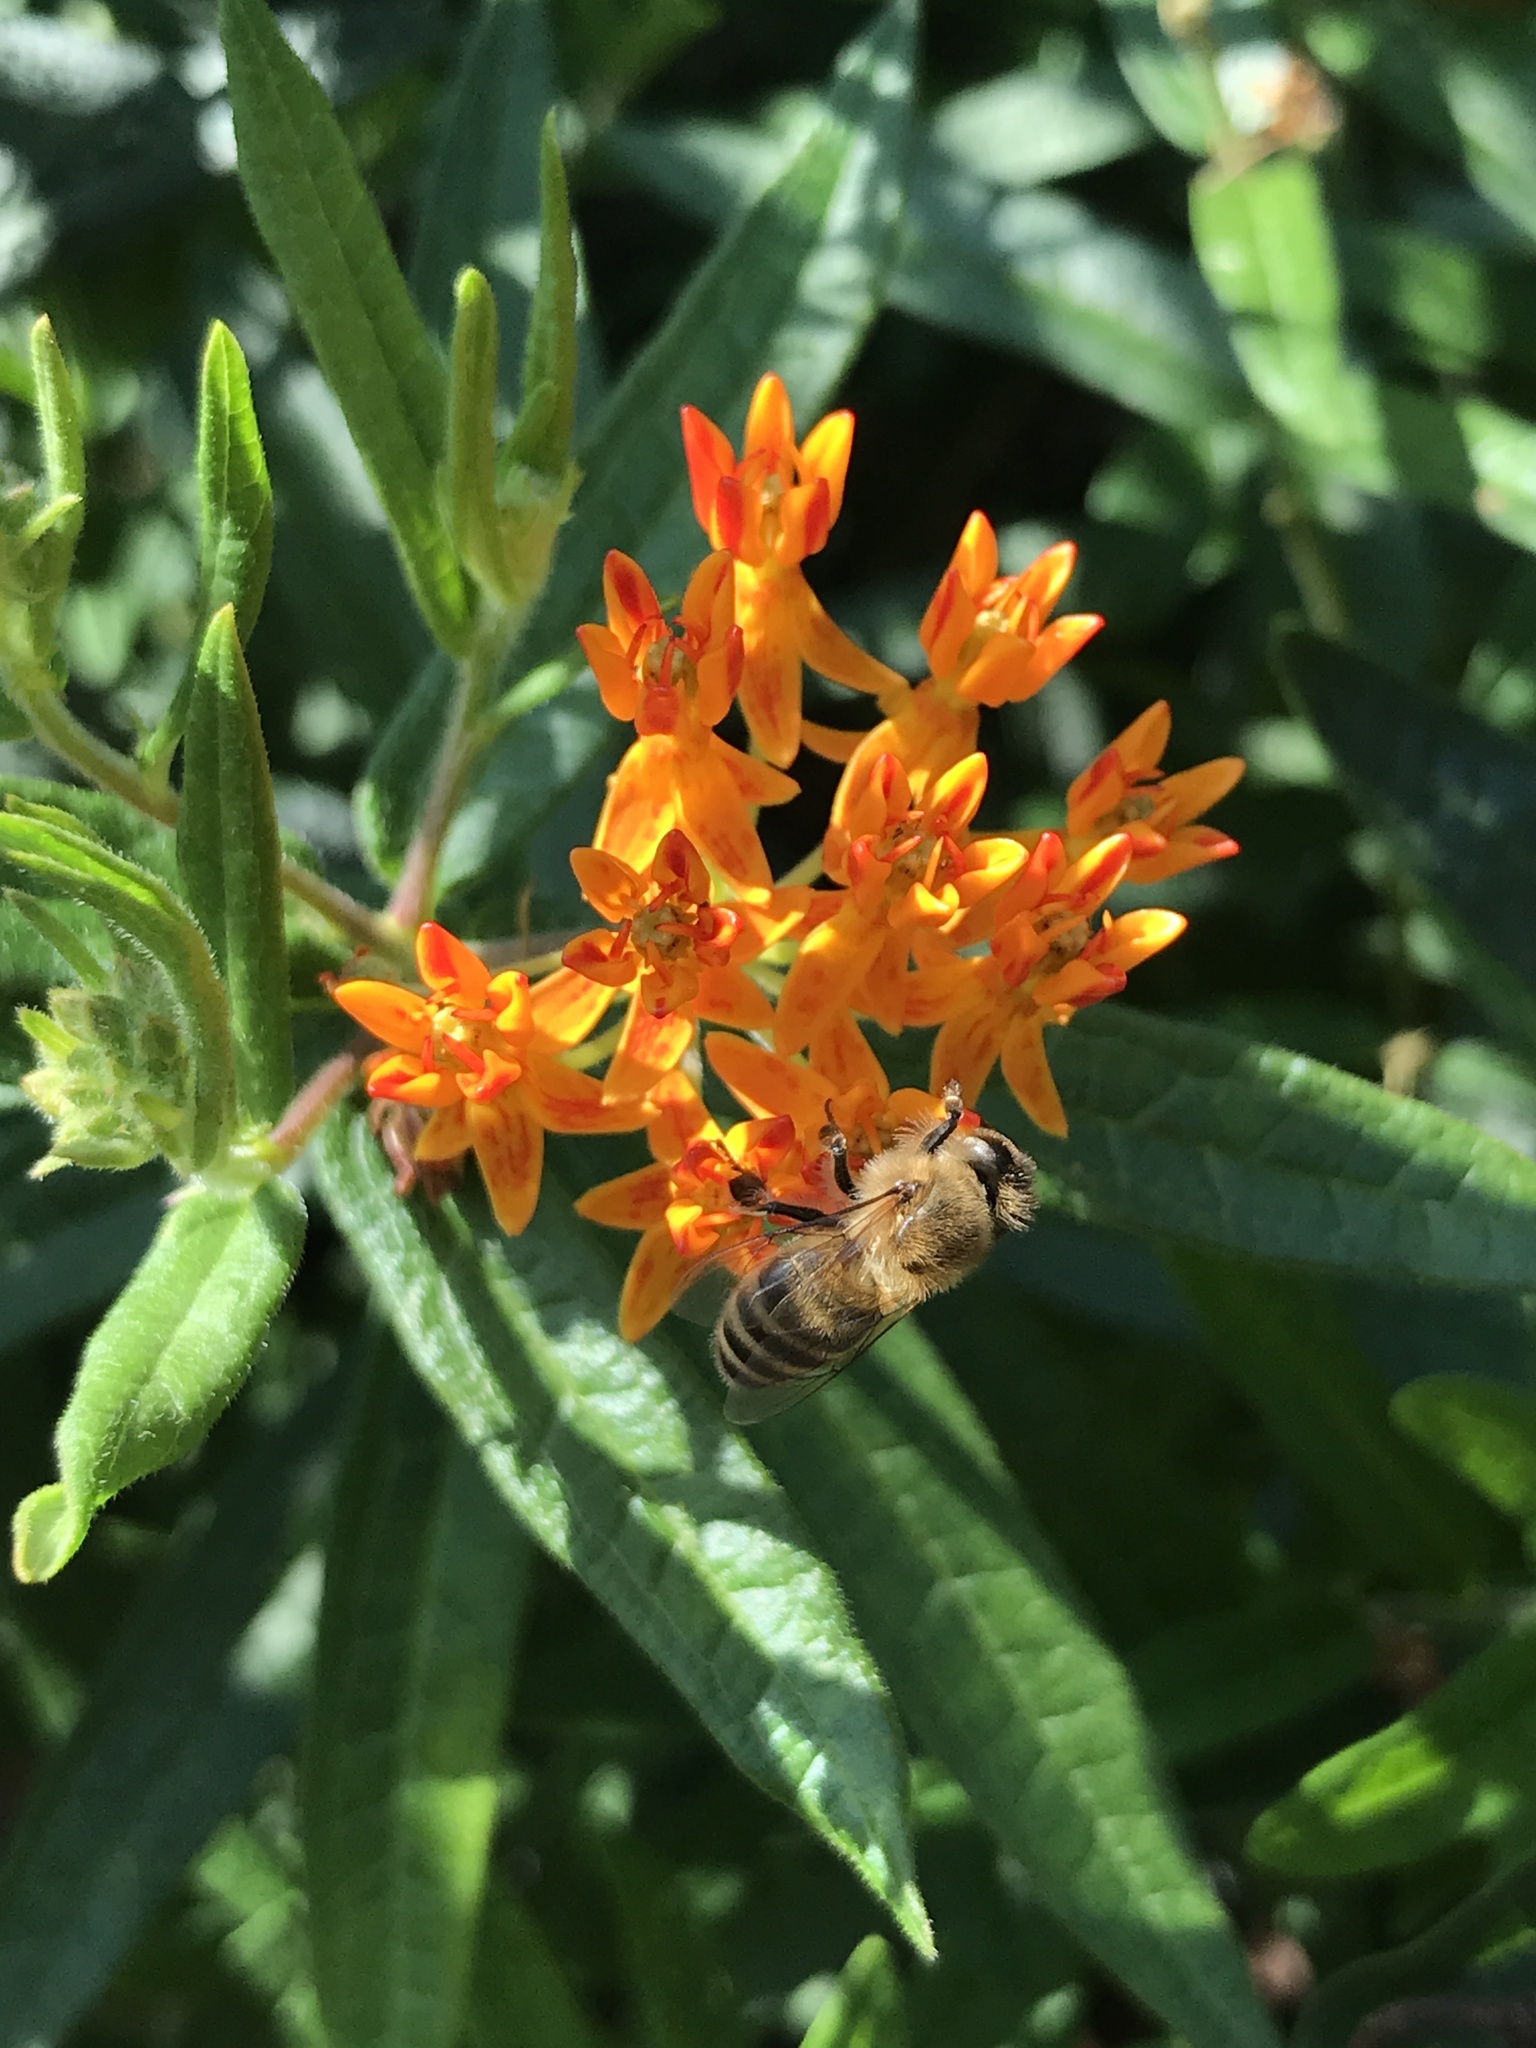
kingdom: Animalia
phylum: Arthropoda
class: Insecta
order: Hymenoptera
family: Apidae
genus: Apis
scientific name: Apis mellifera
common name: Honey bee
